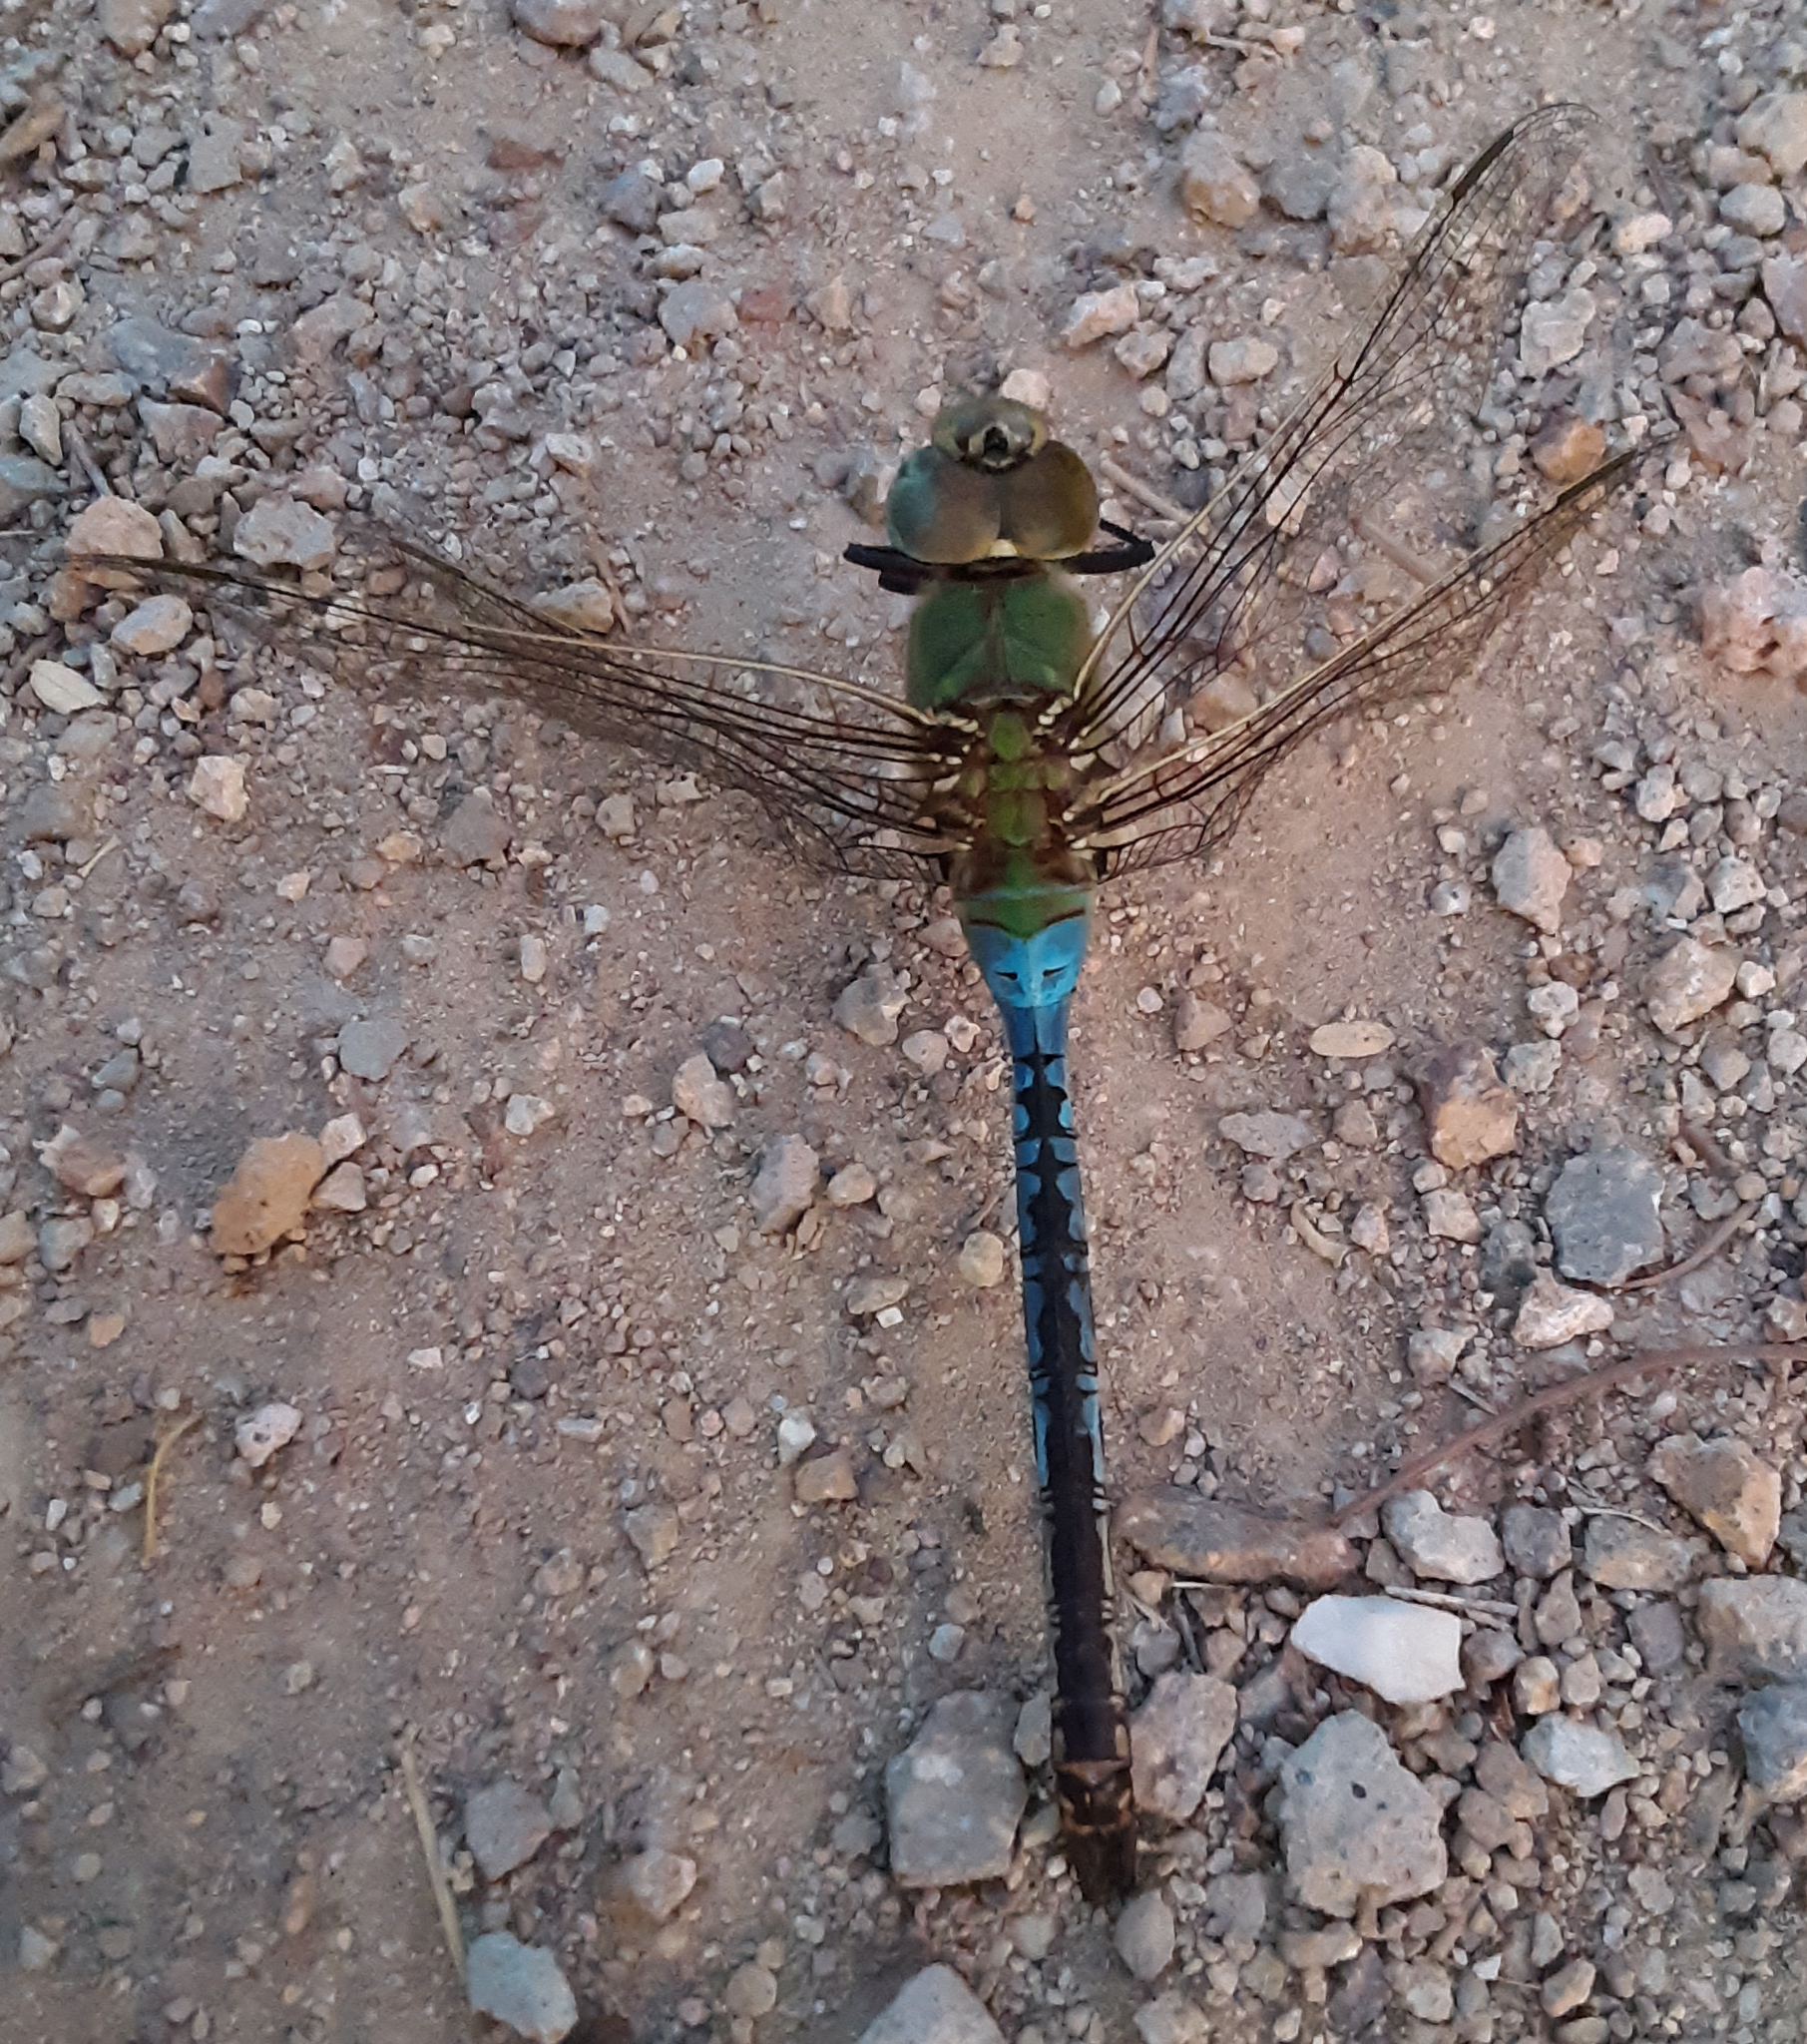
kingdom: Animalia
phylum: Arthropoda
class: Insecta
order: Odonata
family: Aeshnidae
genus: Anax
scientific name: Anax junius
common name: Common green darner
